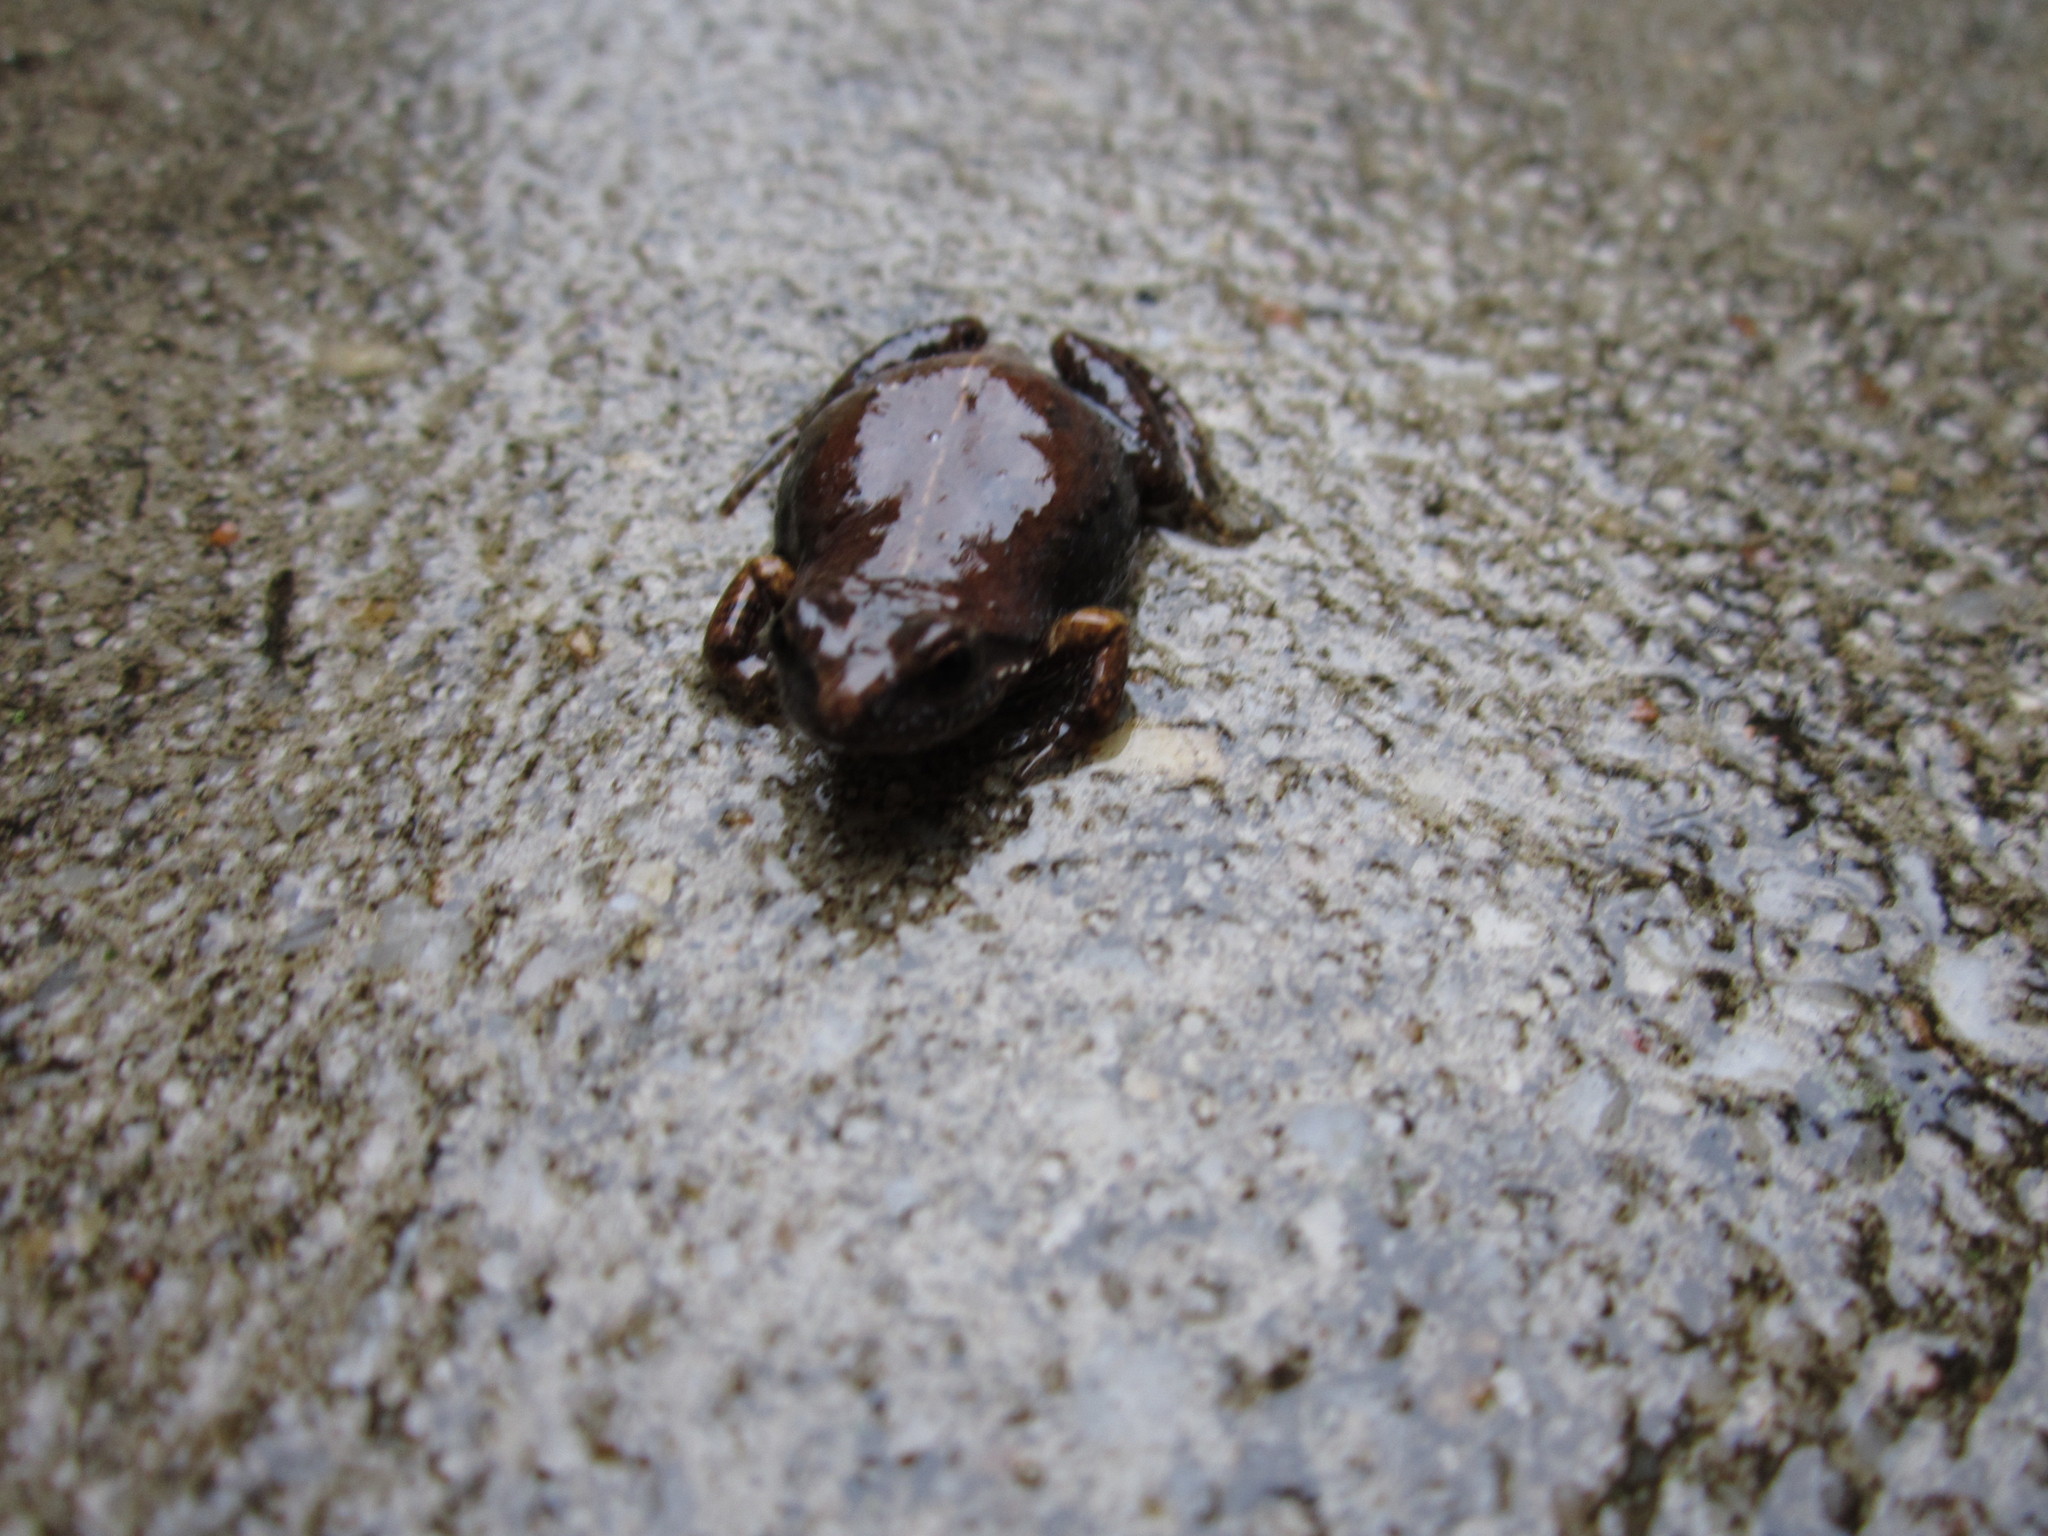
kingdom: Animalia
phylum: Chordata
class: Amphibia
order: Anura
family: Pyxicephalidae
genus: Cacosternum
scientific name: Cacosternum nanum
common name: Bronze dainty frog
